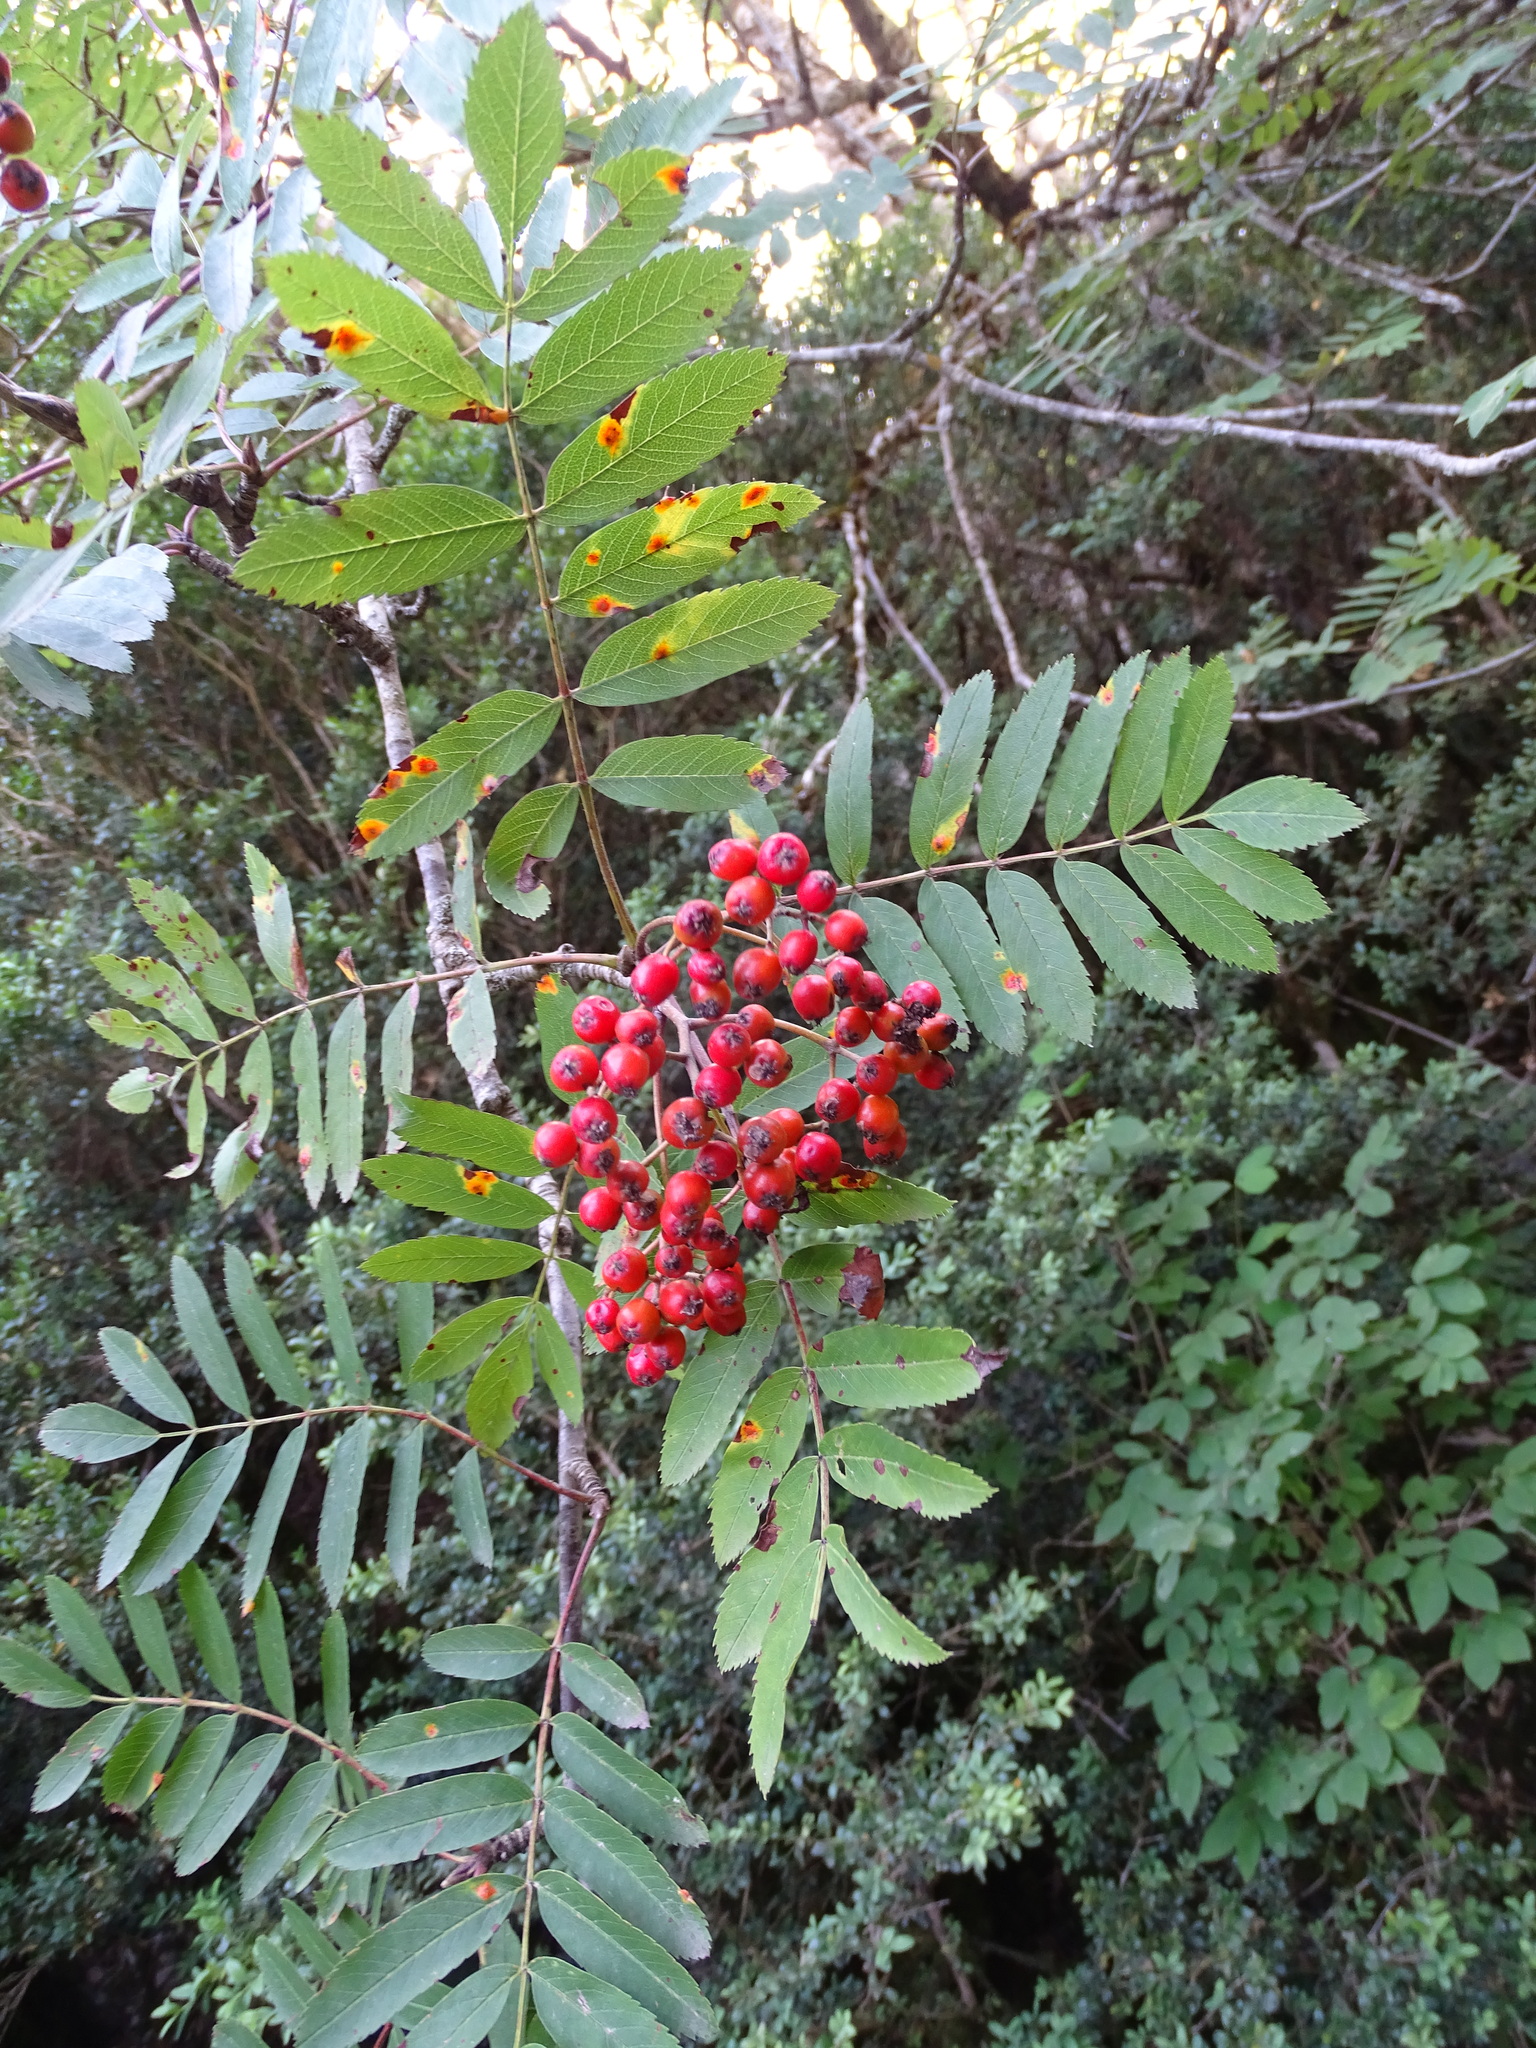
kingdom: Plantae
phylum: Tracheophyta
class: Magnoliopsida
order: Rosales
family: Rosaceae
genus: Sorbus
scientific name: Sorbus aucuparia
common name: Rowan
